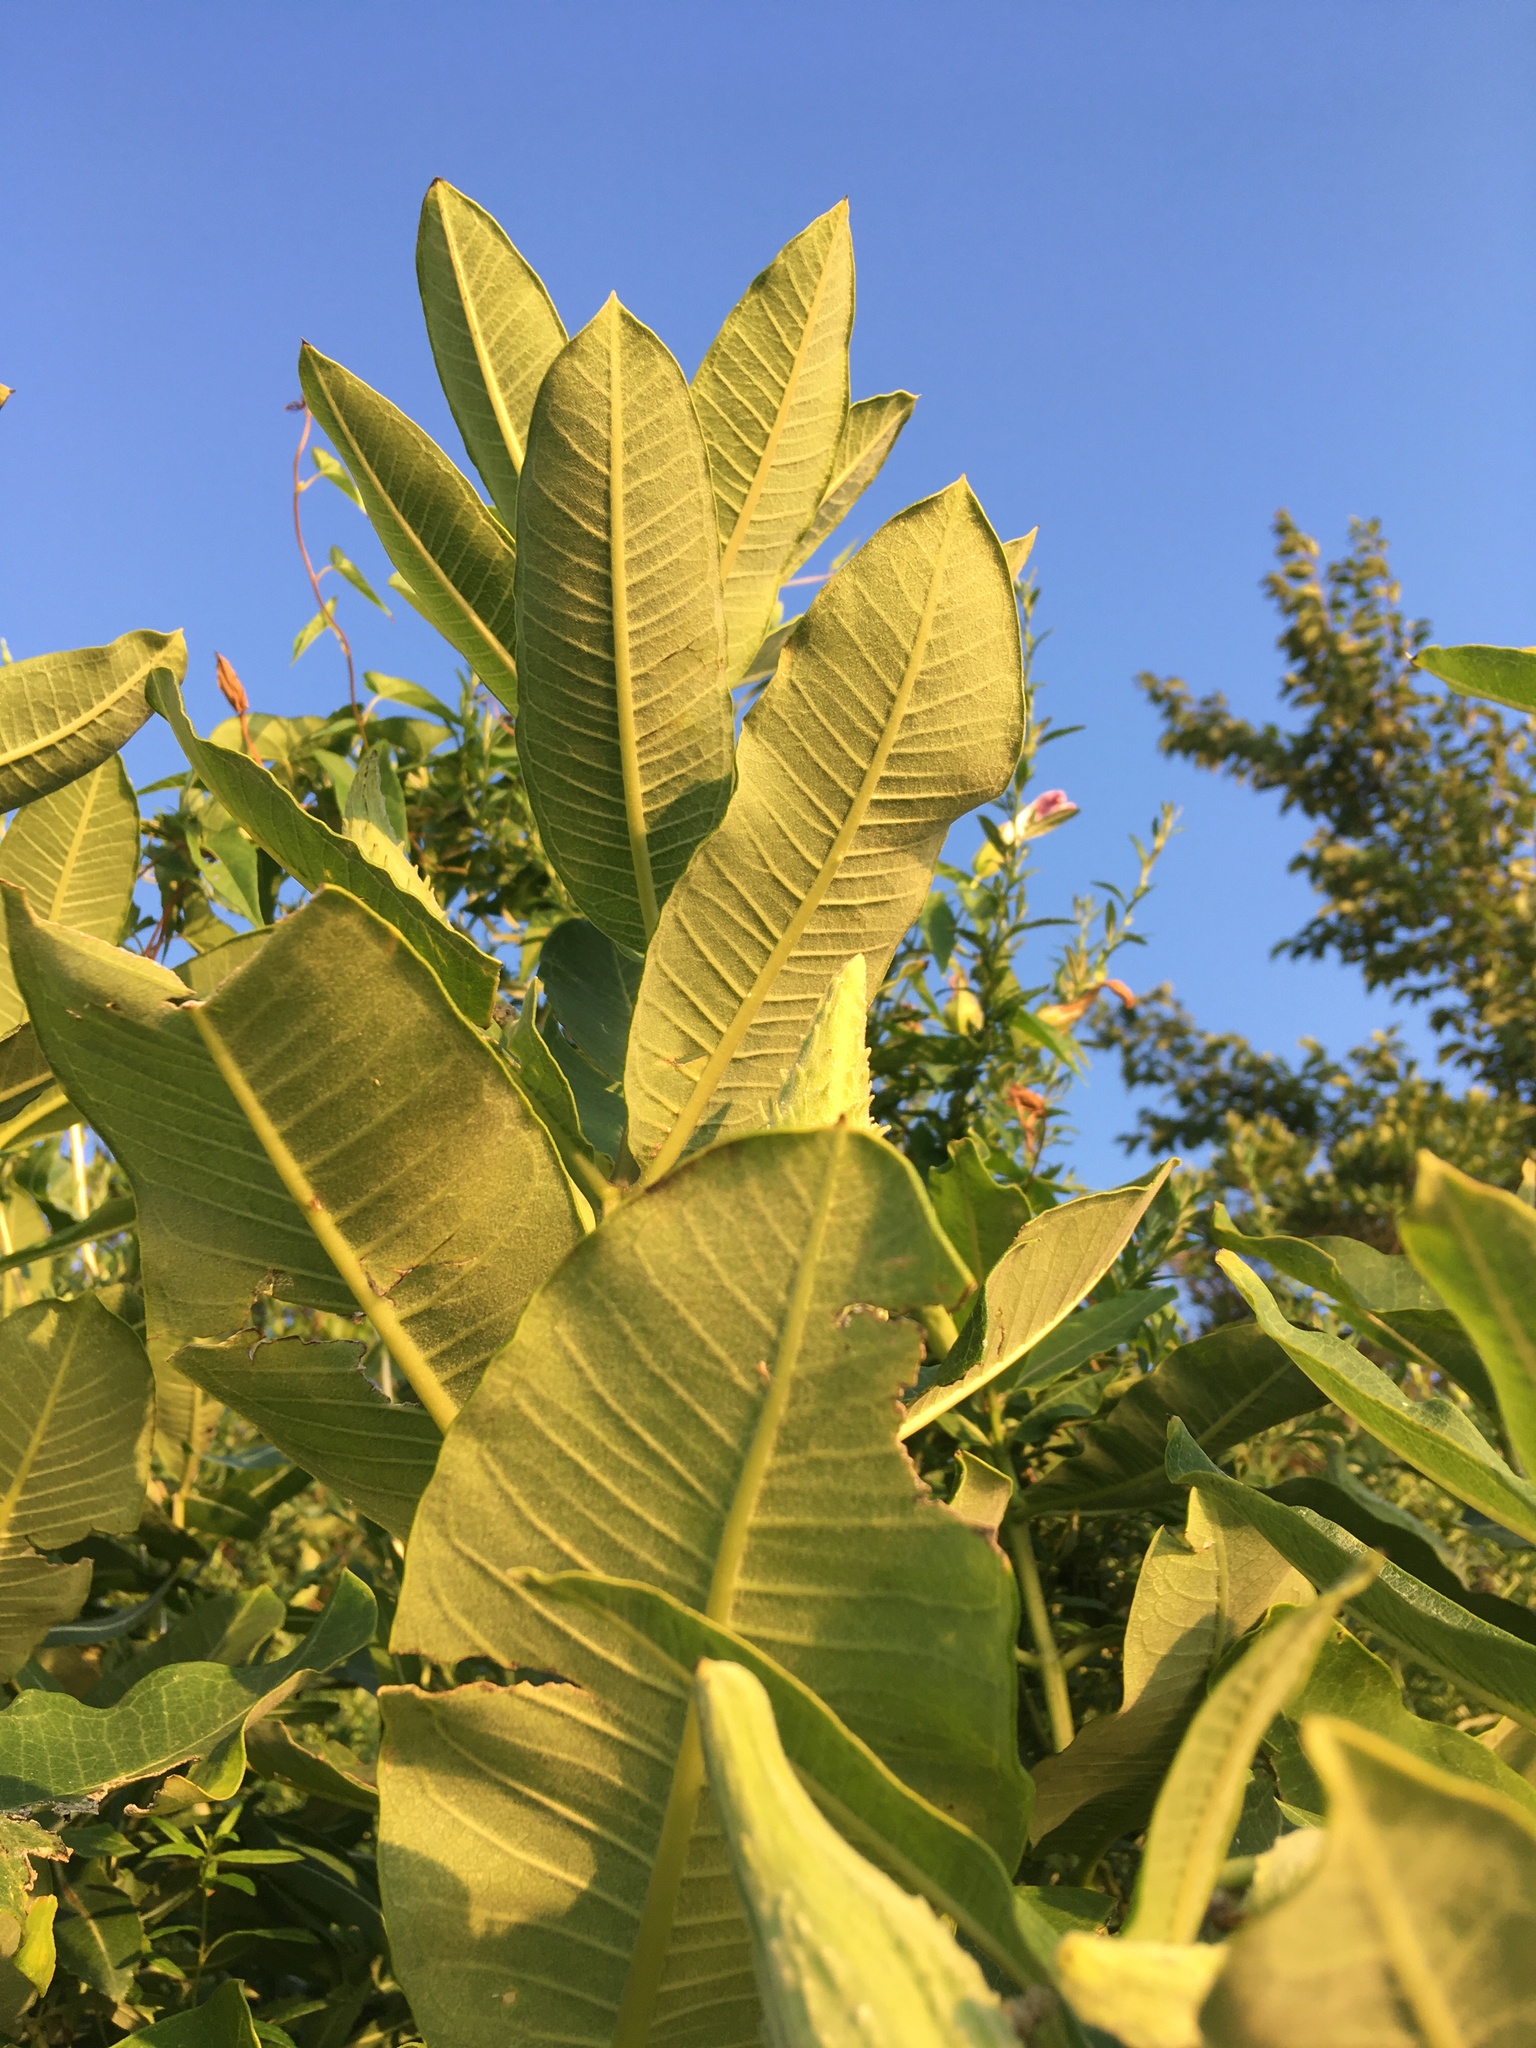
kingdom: Plantae
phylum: Tracheophyta
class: Magnoliopsida
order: Gentianales
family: Apocynaceae
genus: Asclepias
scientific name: Asclepias syriaca
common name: Common milkweed
